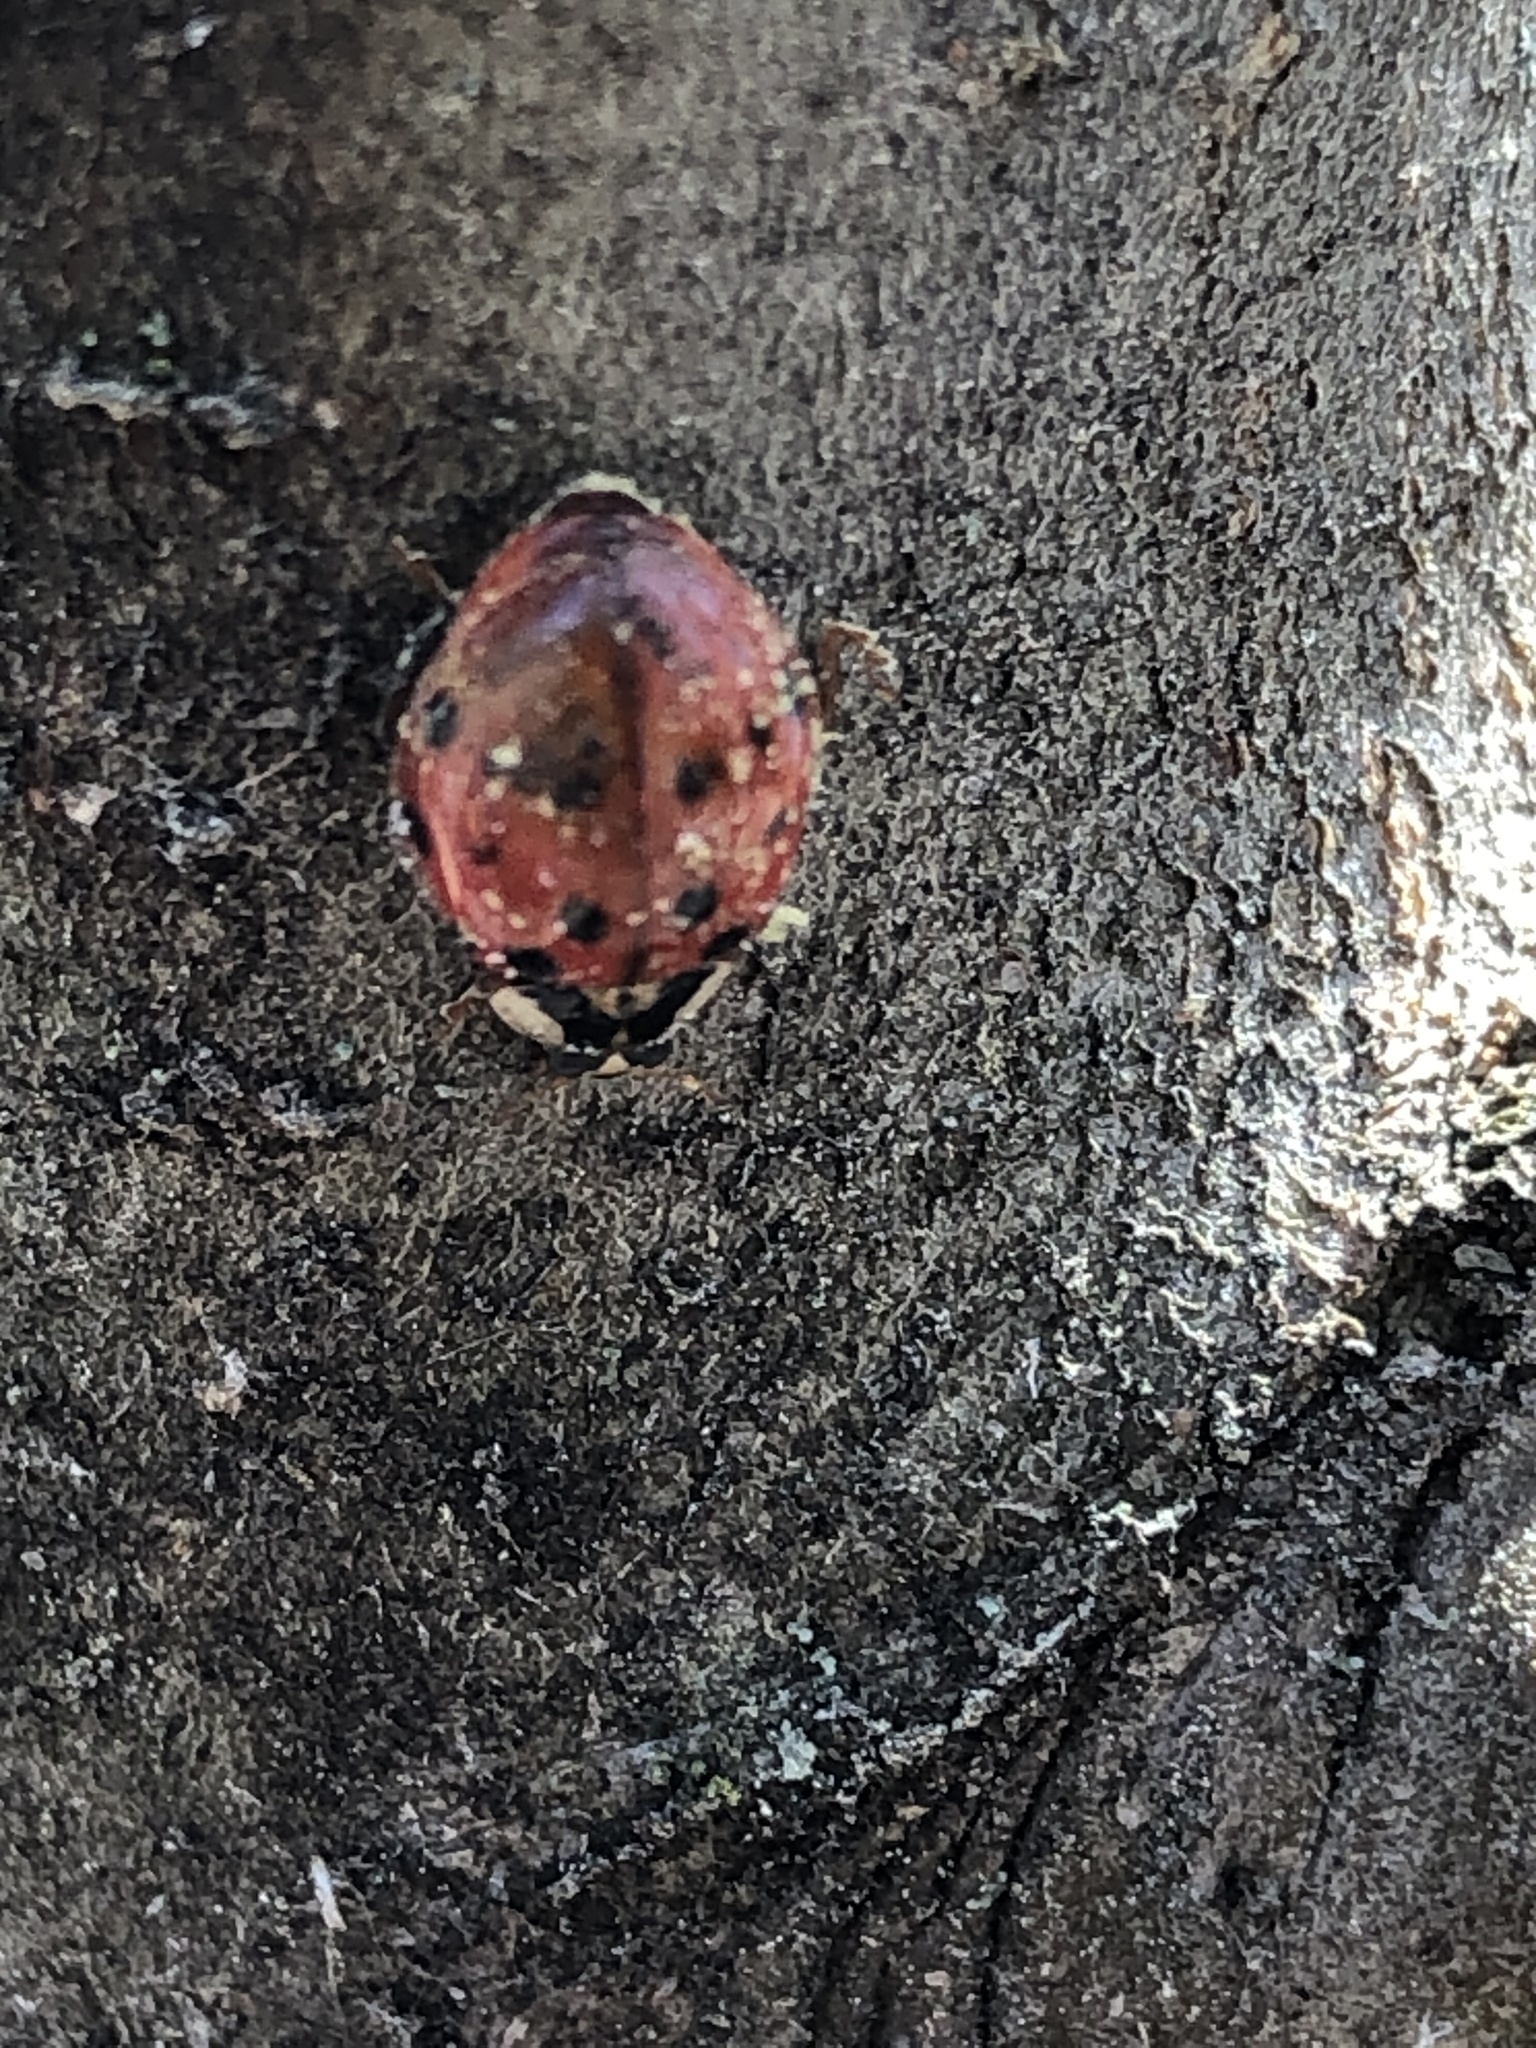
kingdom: Animalia
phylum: Arthropoda
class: Insecta
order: Coleoptera
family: Coccinellidae
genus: Harmonia
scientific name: Harmonia axyridis
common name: Harlequin ladybird
